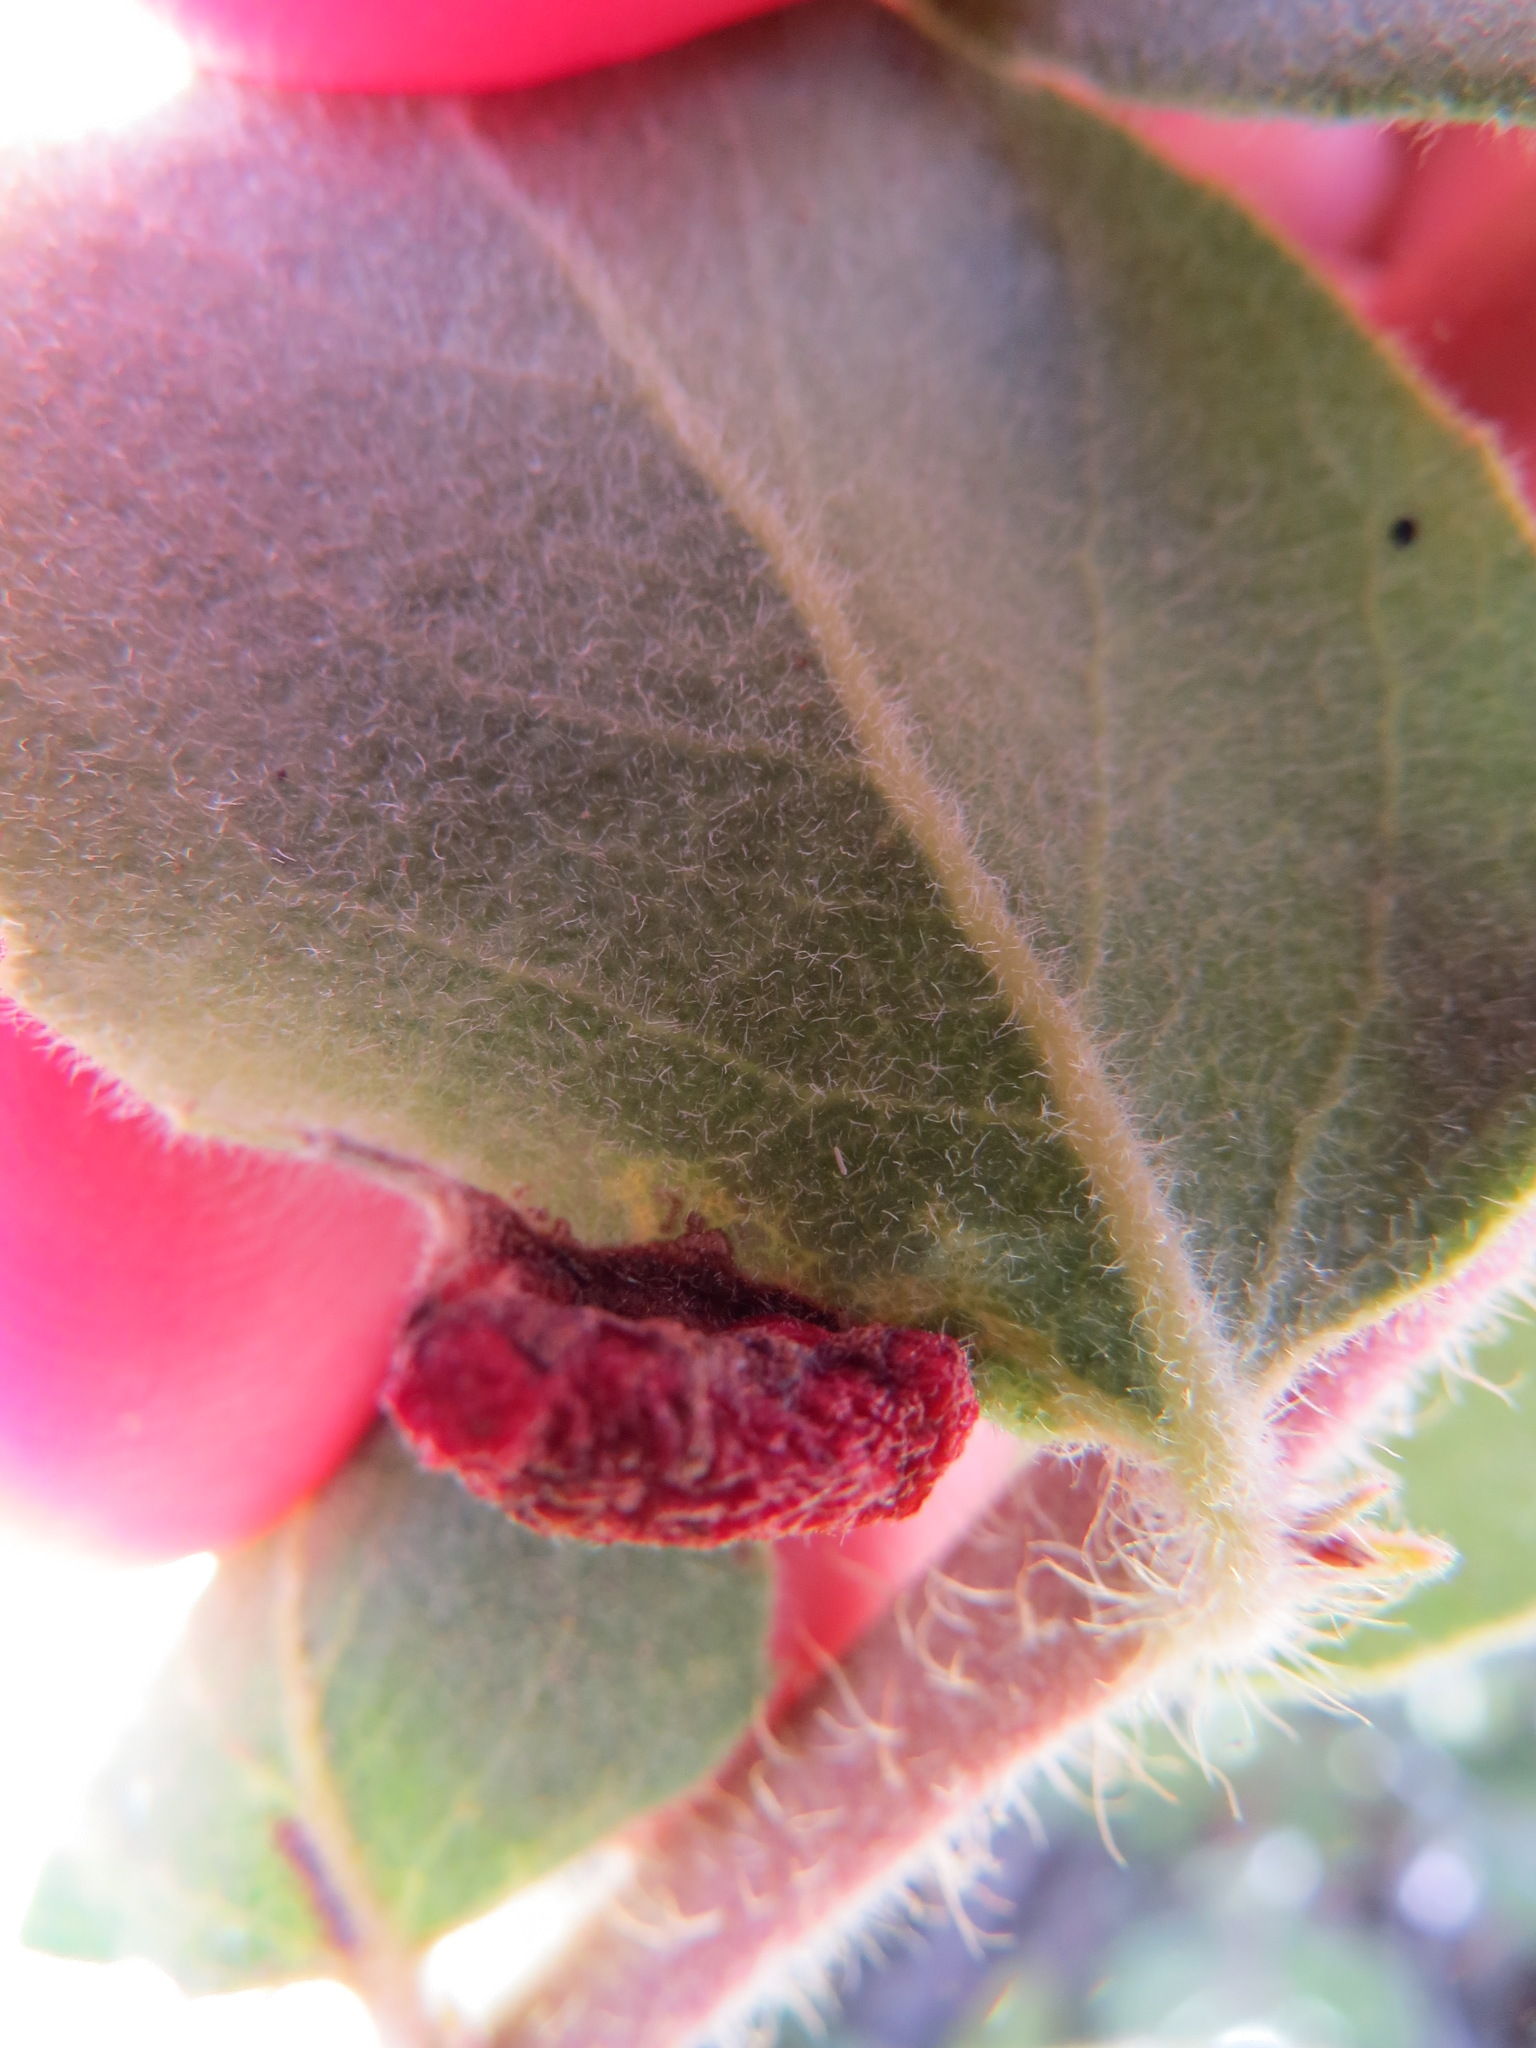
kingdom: Animalia
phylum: Arthropoda
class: Insecta
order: Hemiptera
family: Aphididae
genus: Tamalia
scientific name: Tamalia coweni
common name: Manzanita leafgall aphid
